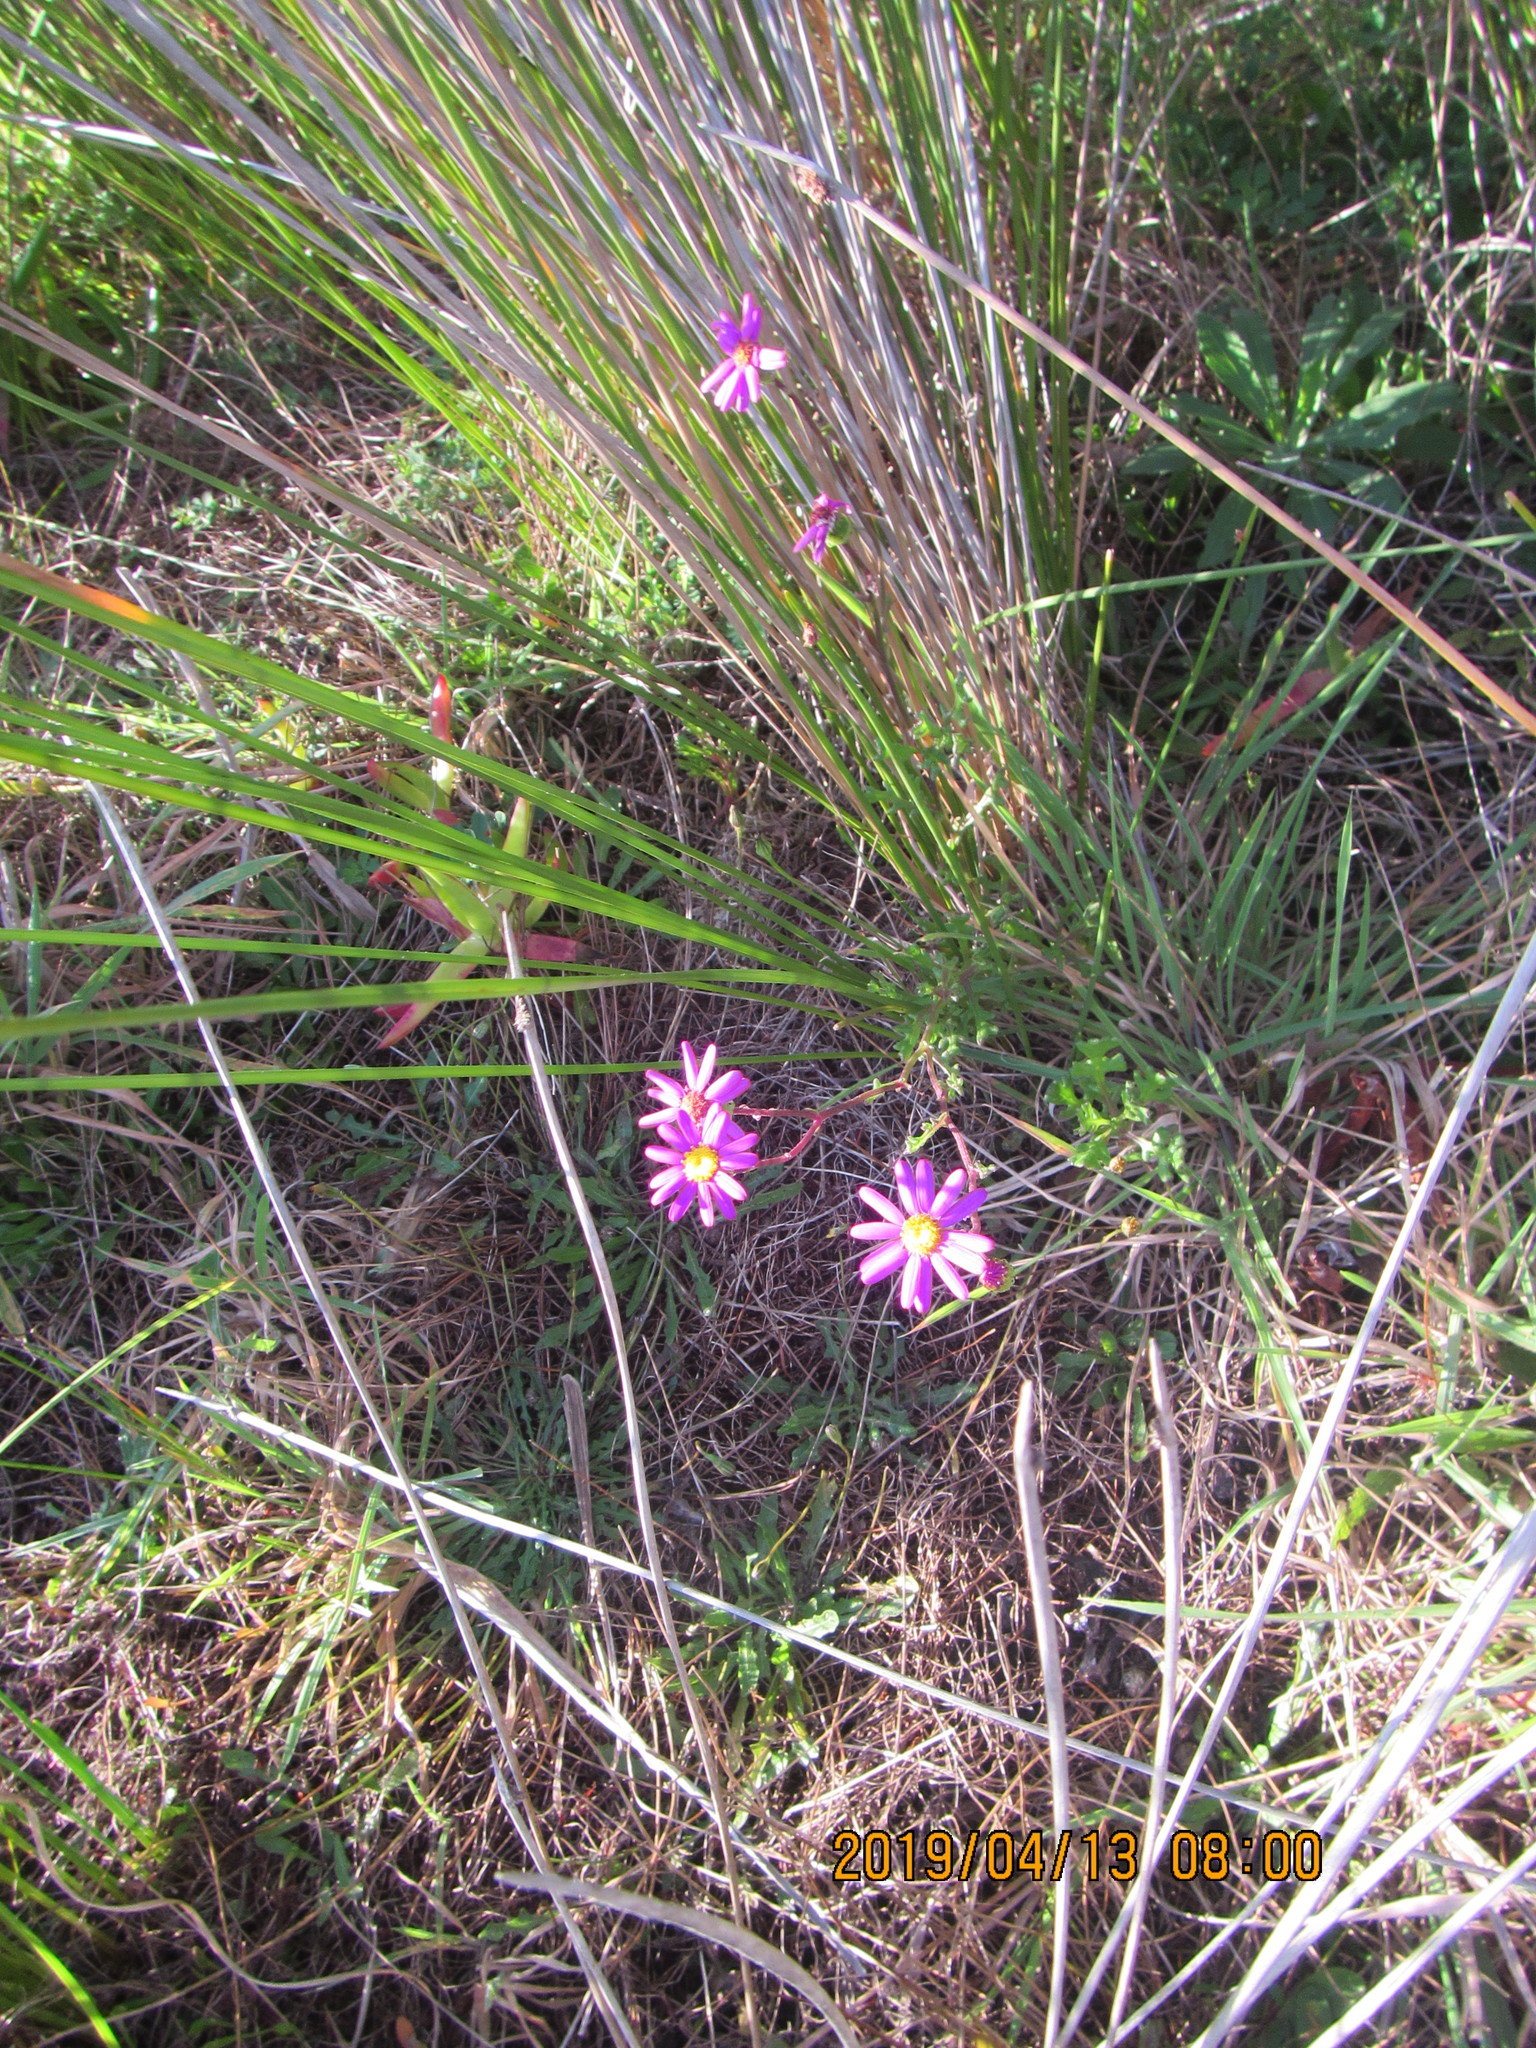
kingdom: Plantae
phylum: Tracheophyta
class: Magnoliopsida
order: Asterales
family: Asteraceae
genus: Senecio
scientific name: Senecio elegans
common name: Purple groundsel
